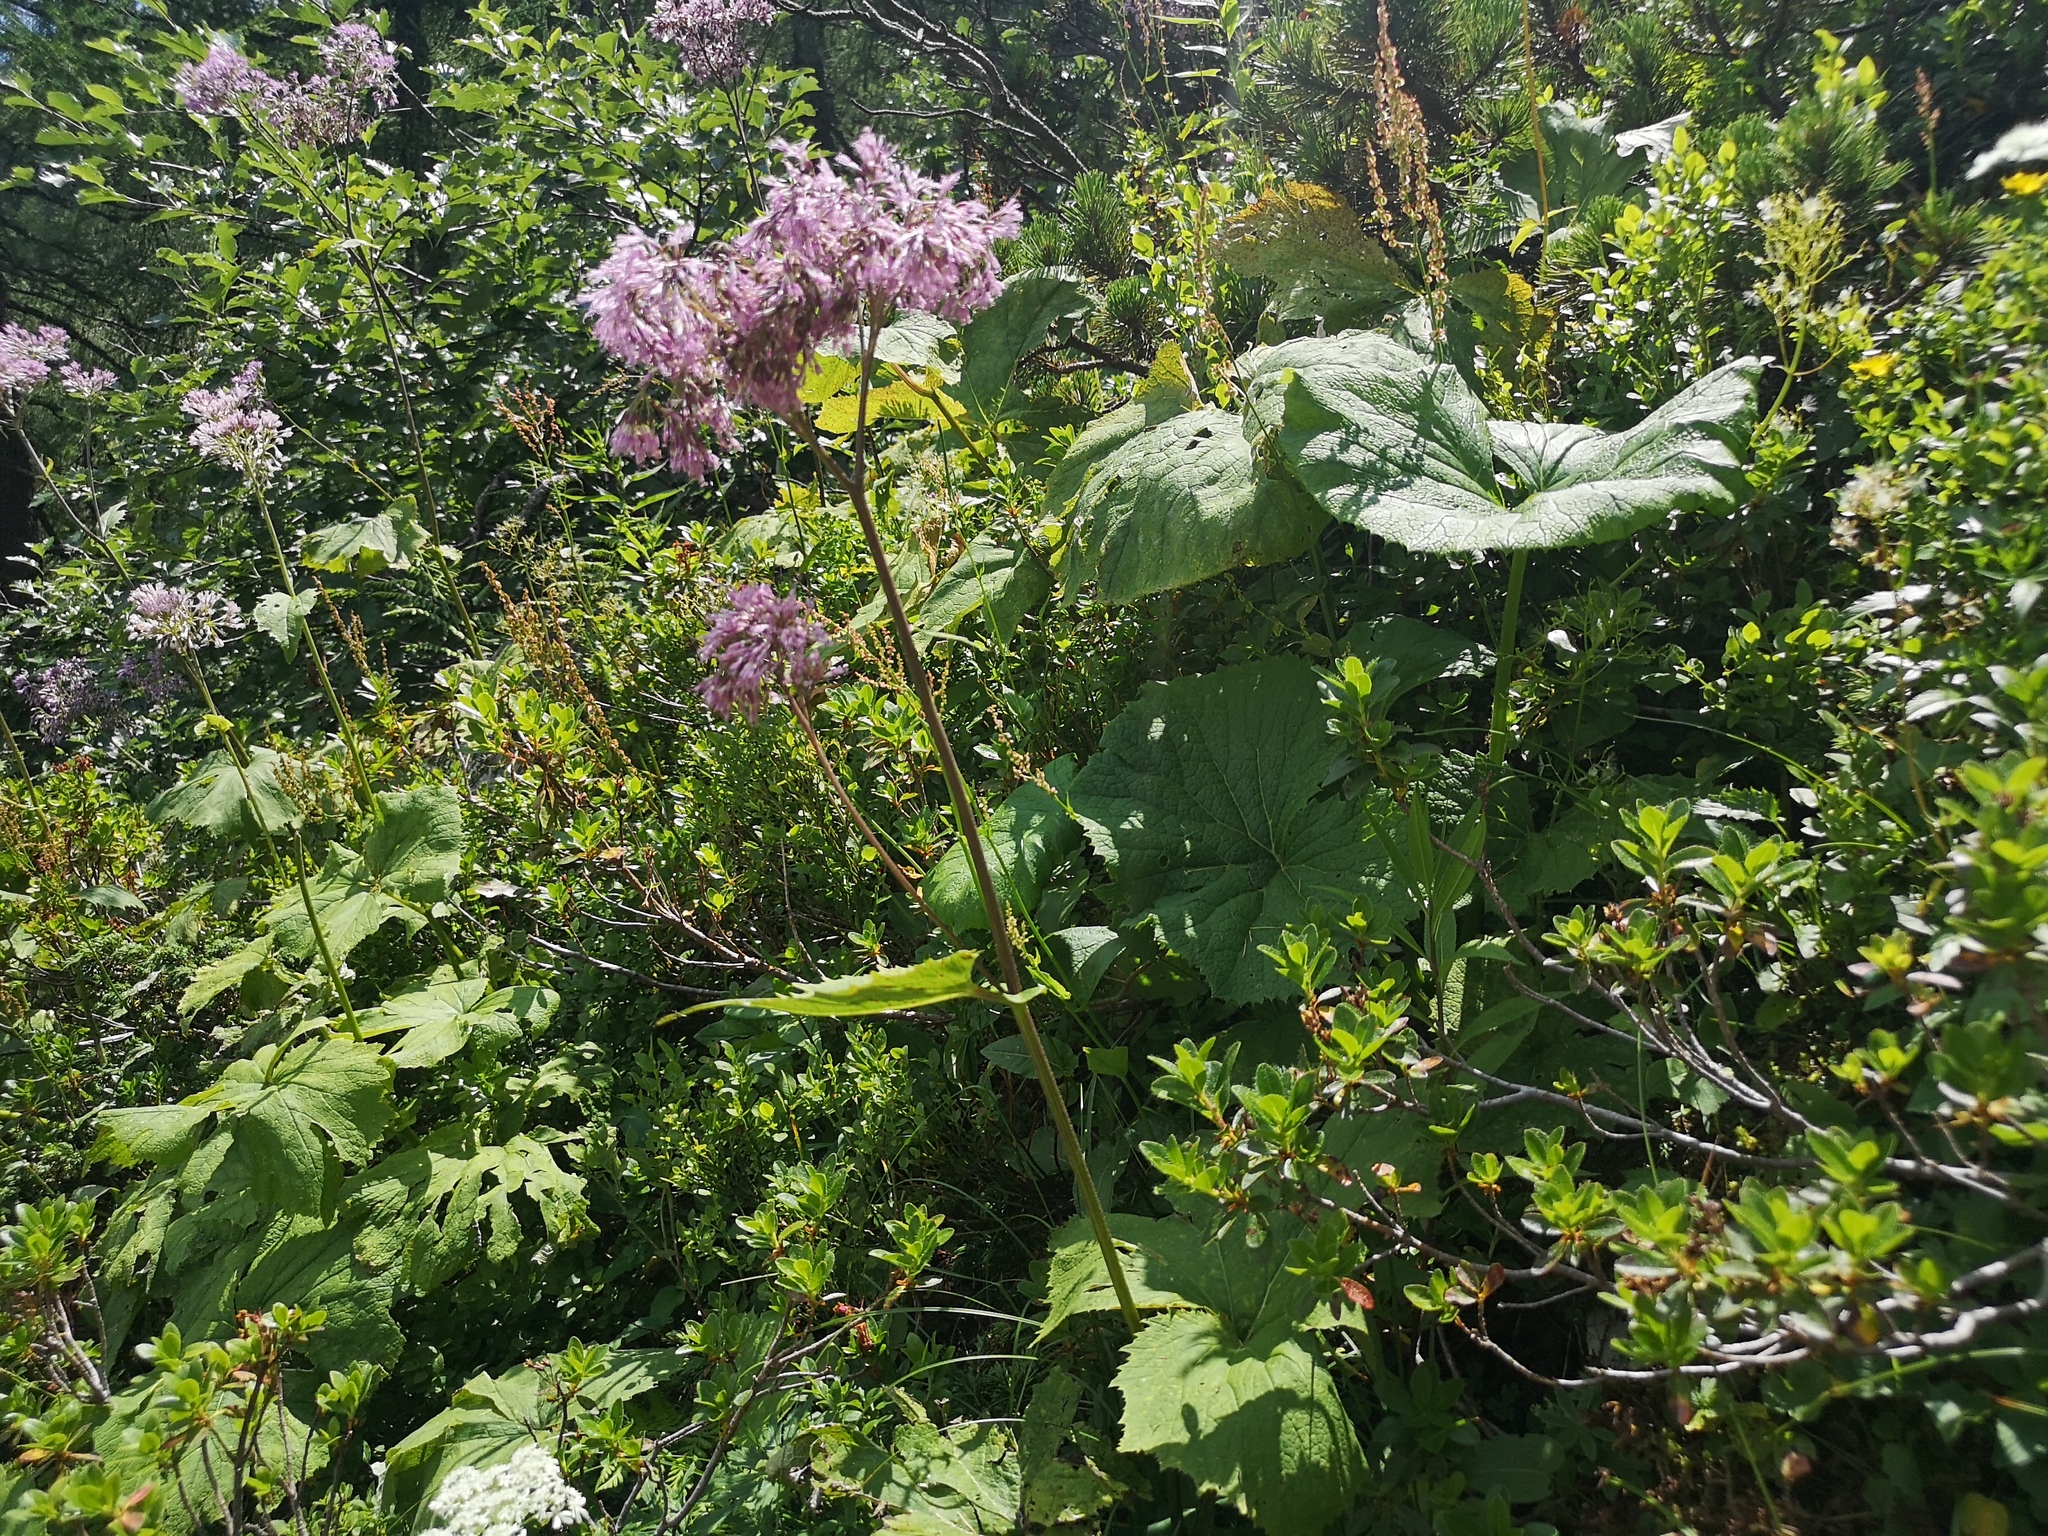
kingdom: Plantae
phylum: Tracheophyta
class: Magnoliopsida
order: Asterales
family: Asteraceae
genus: Adenostyles
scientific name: Adenostyles alliariae
